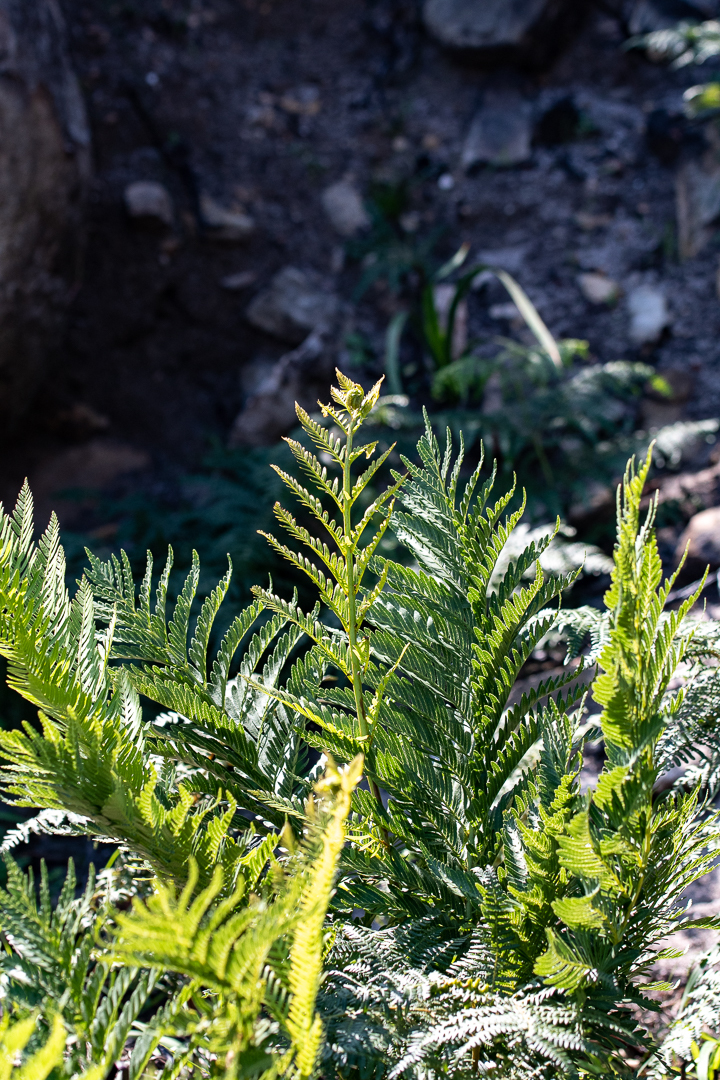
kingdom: Plantae
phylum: Tracheophyta
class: Polypodiopsida
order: Osmundales
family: Osmundaceae
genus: Todea
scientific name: Todea barbara
